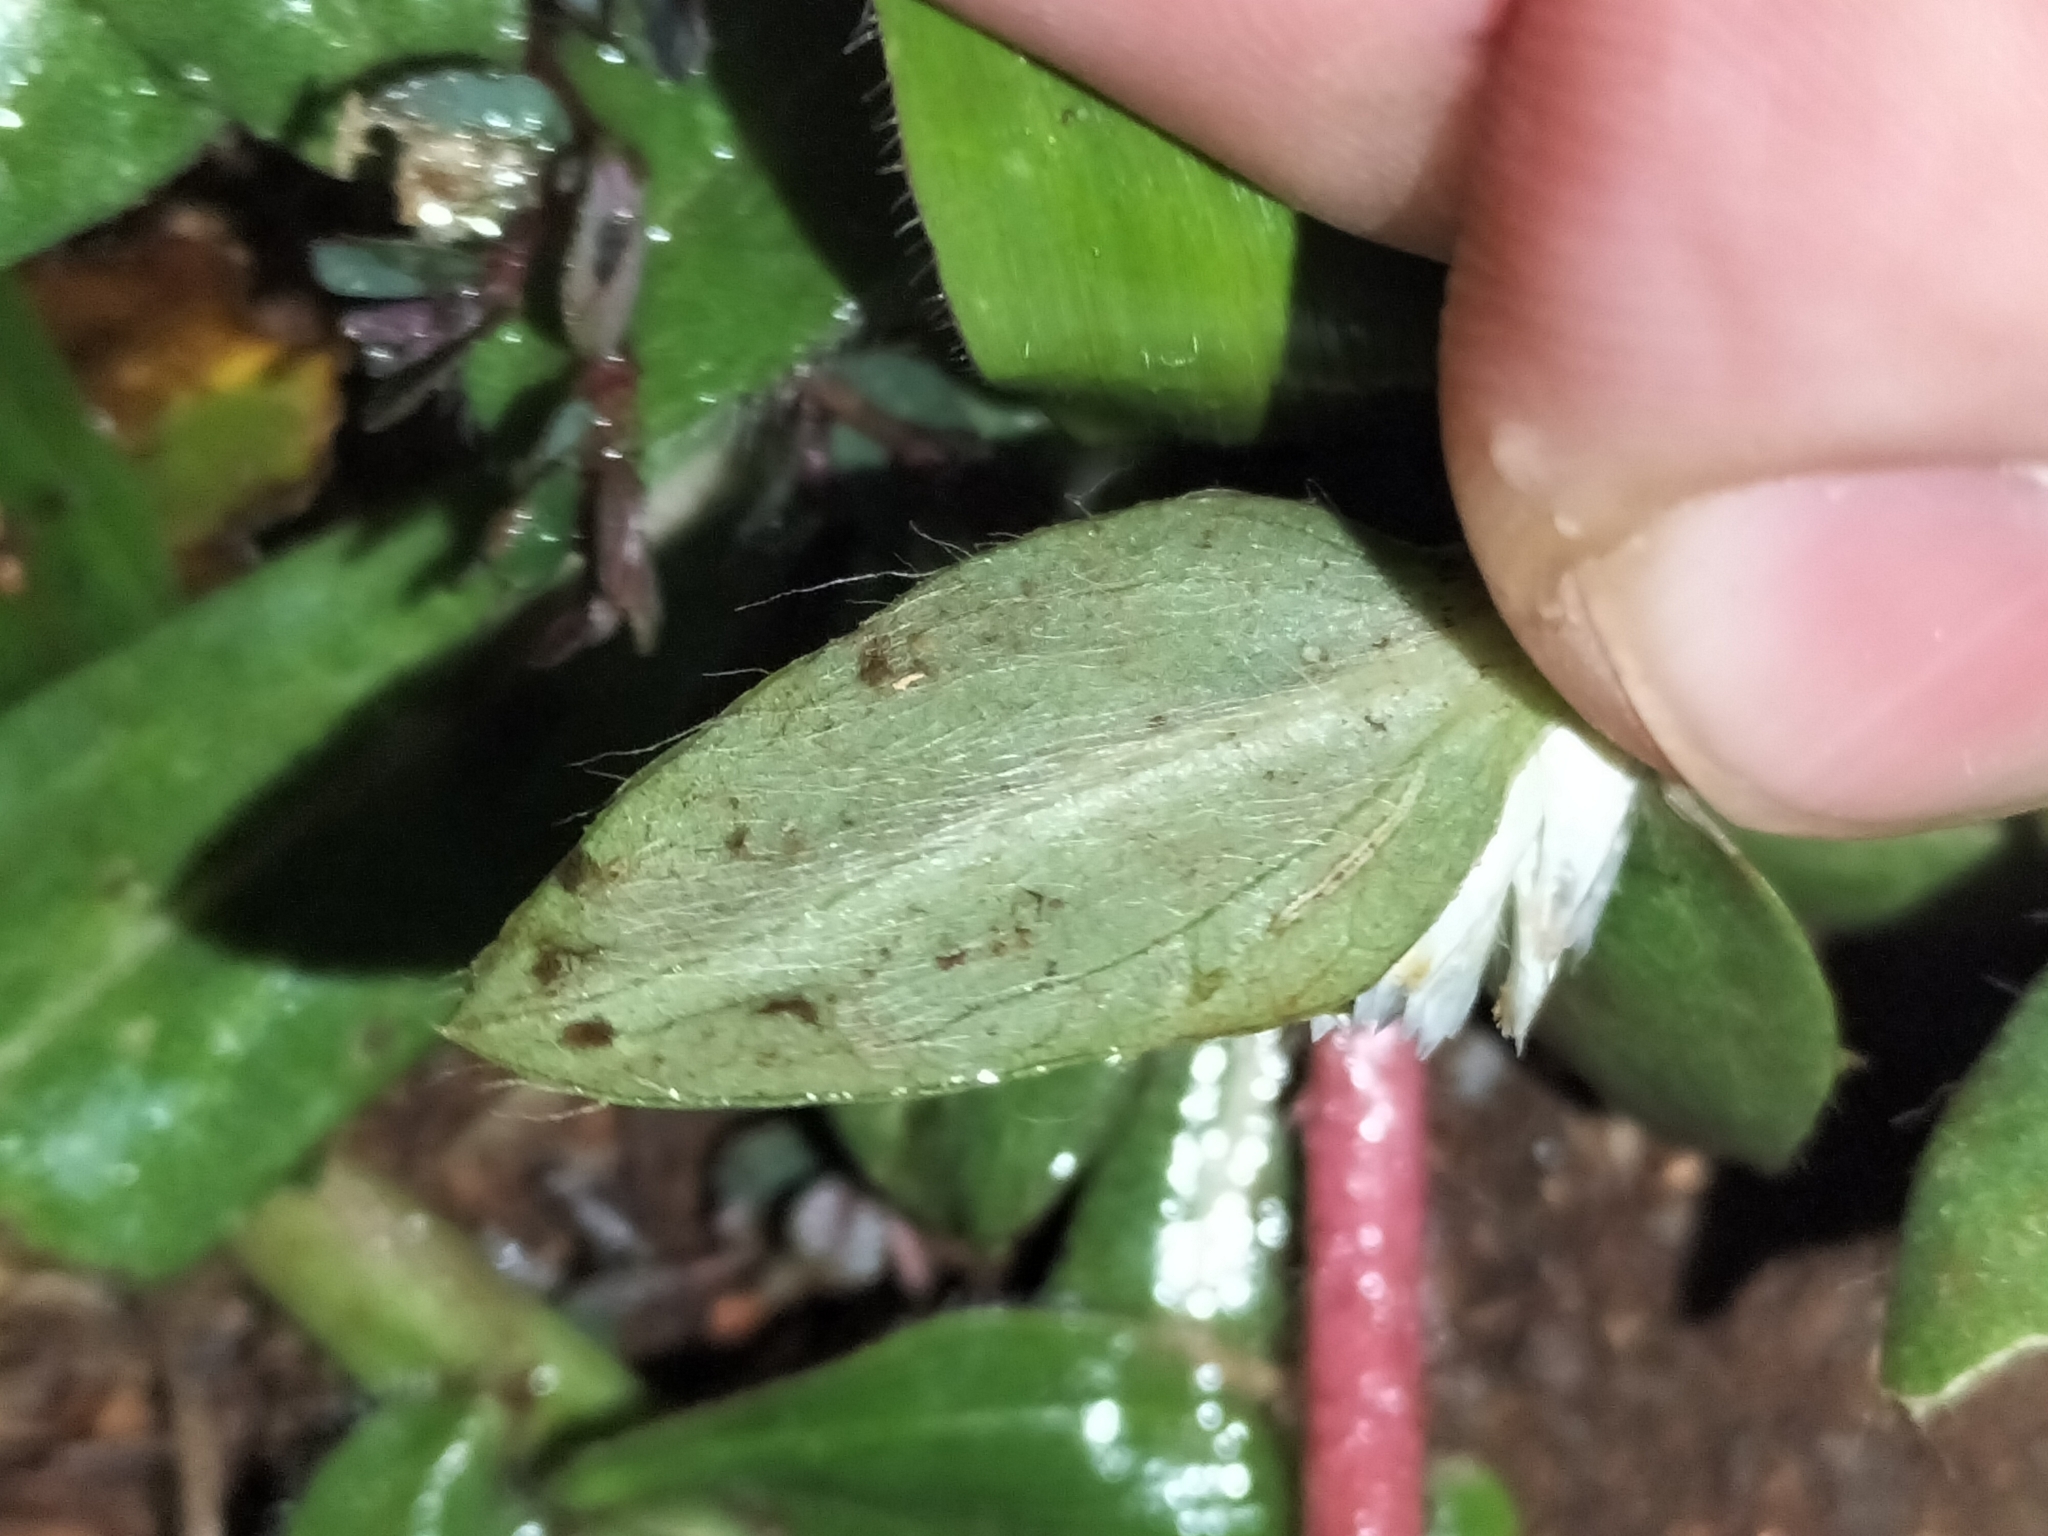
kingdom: Plantae
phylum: Tracheophyta
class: Magnoliopsida
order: Caryophyllales
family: Amaranthaceae
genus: Gomphrena
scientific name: Gomphrena celosioides
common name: Gomphrena-weed
